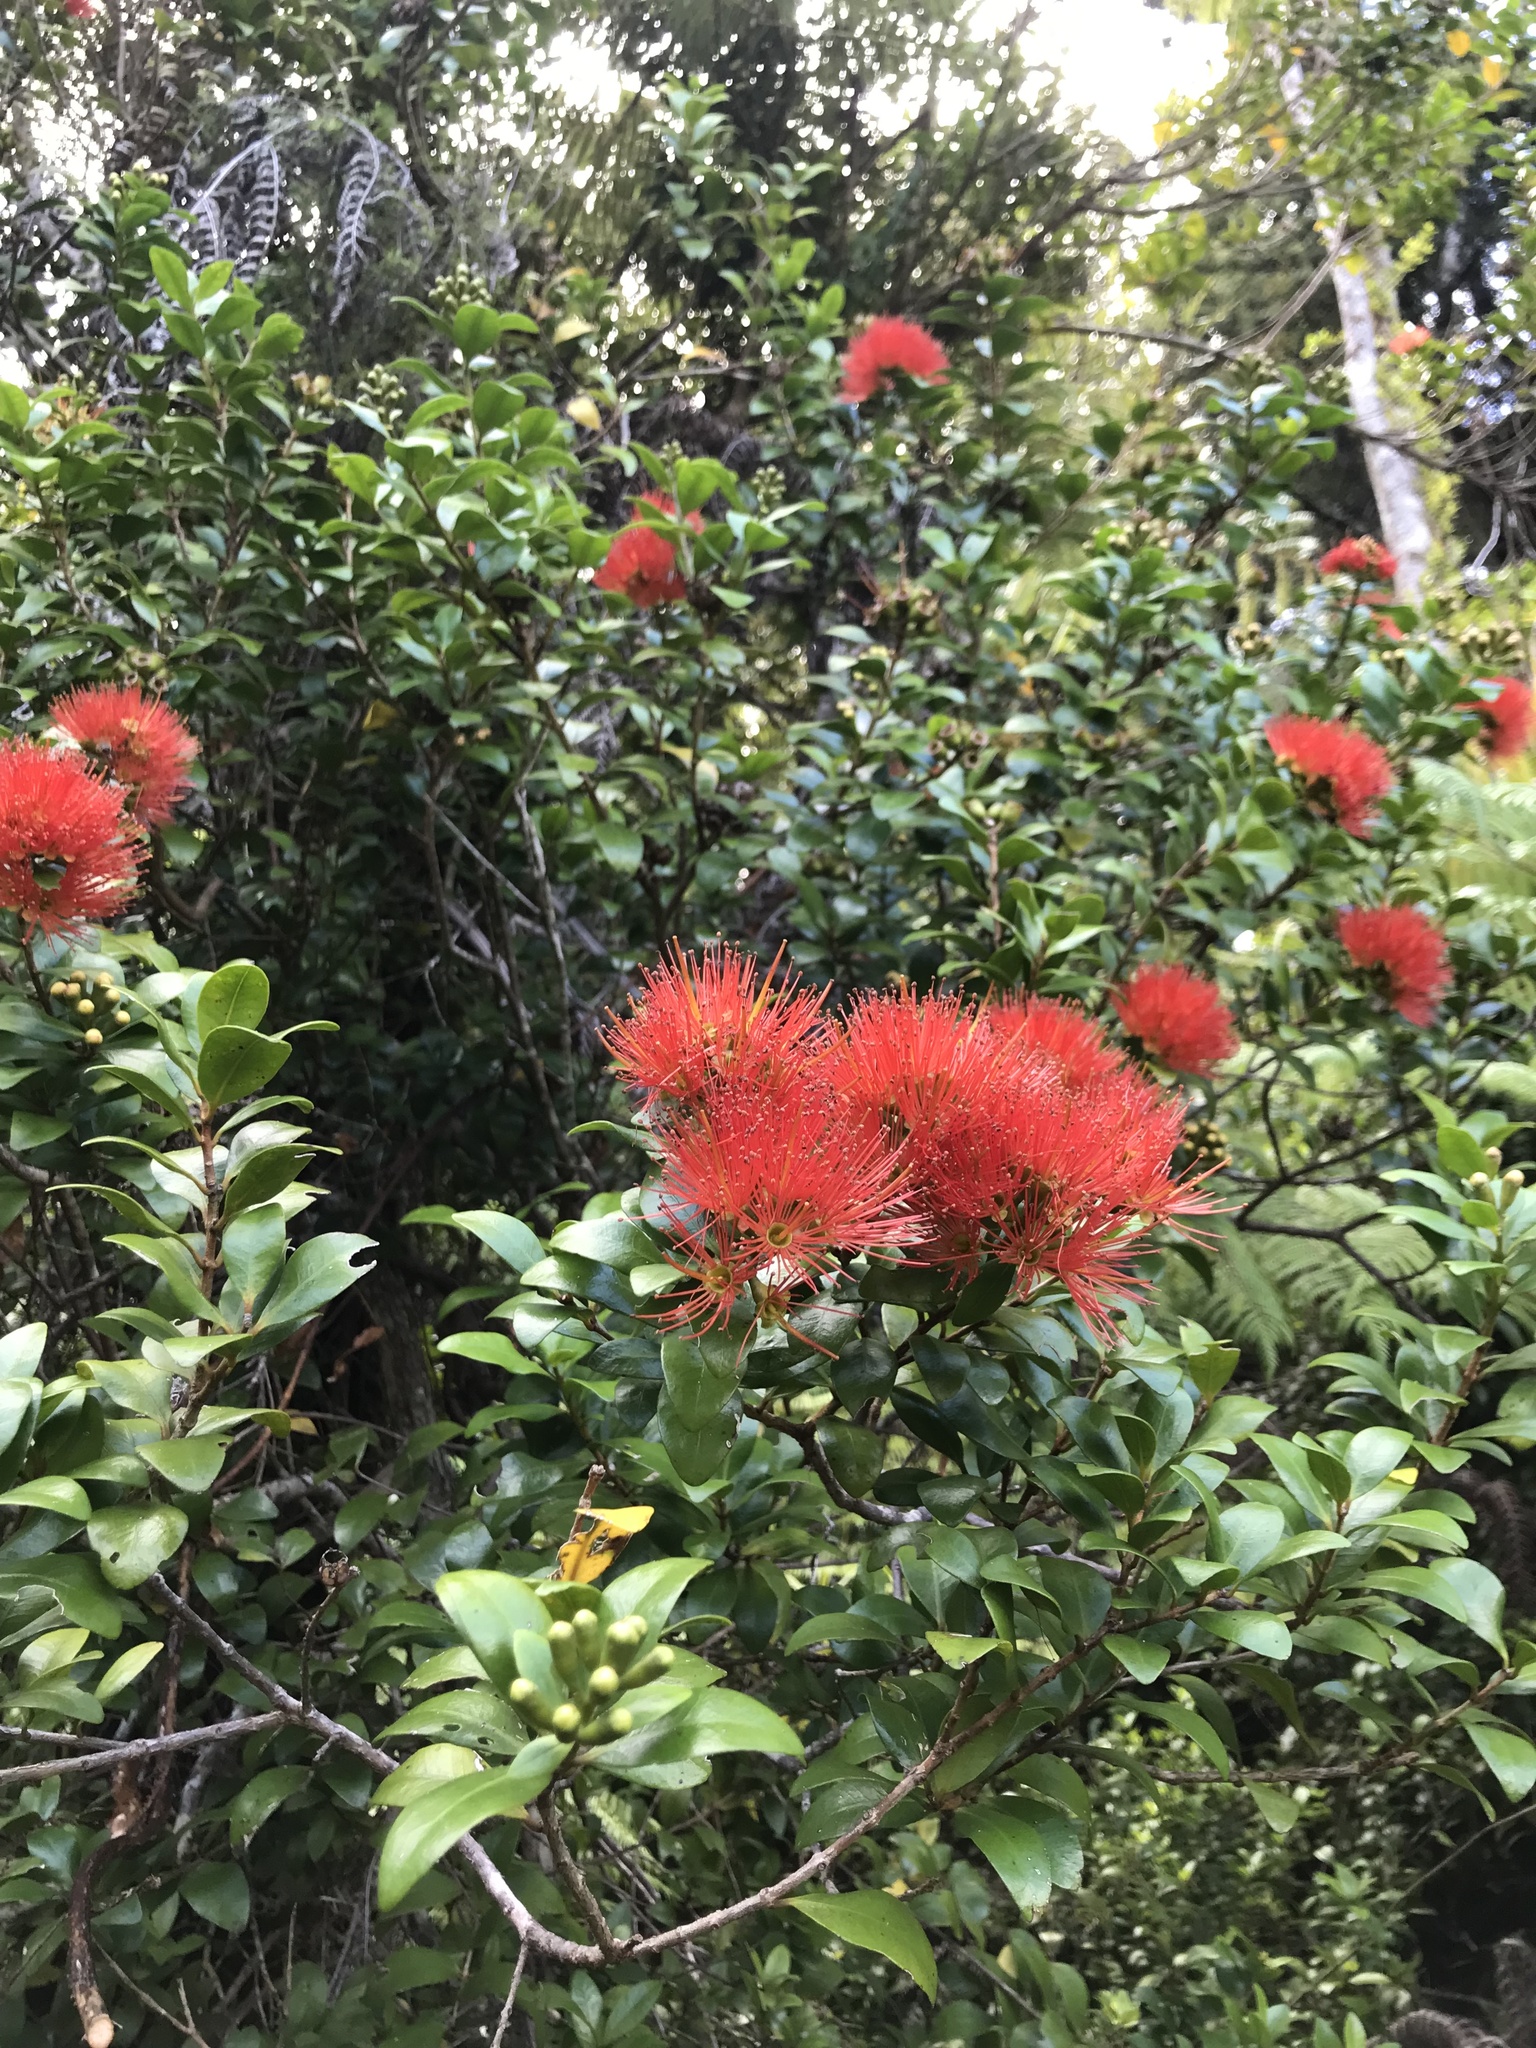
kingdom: Plantae
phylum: Tracheophyta
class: Magnoliopsida
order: Myrtales
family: Myrtaceae
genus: Metrosideros
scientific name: Metrosideros fulgens
